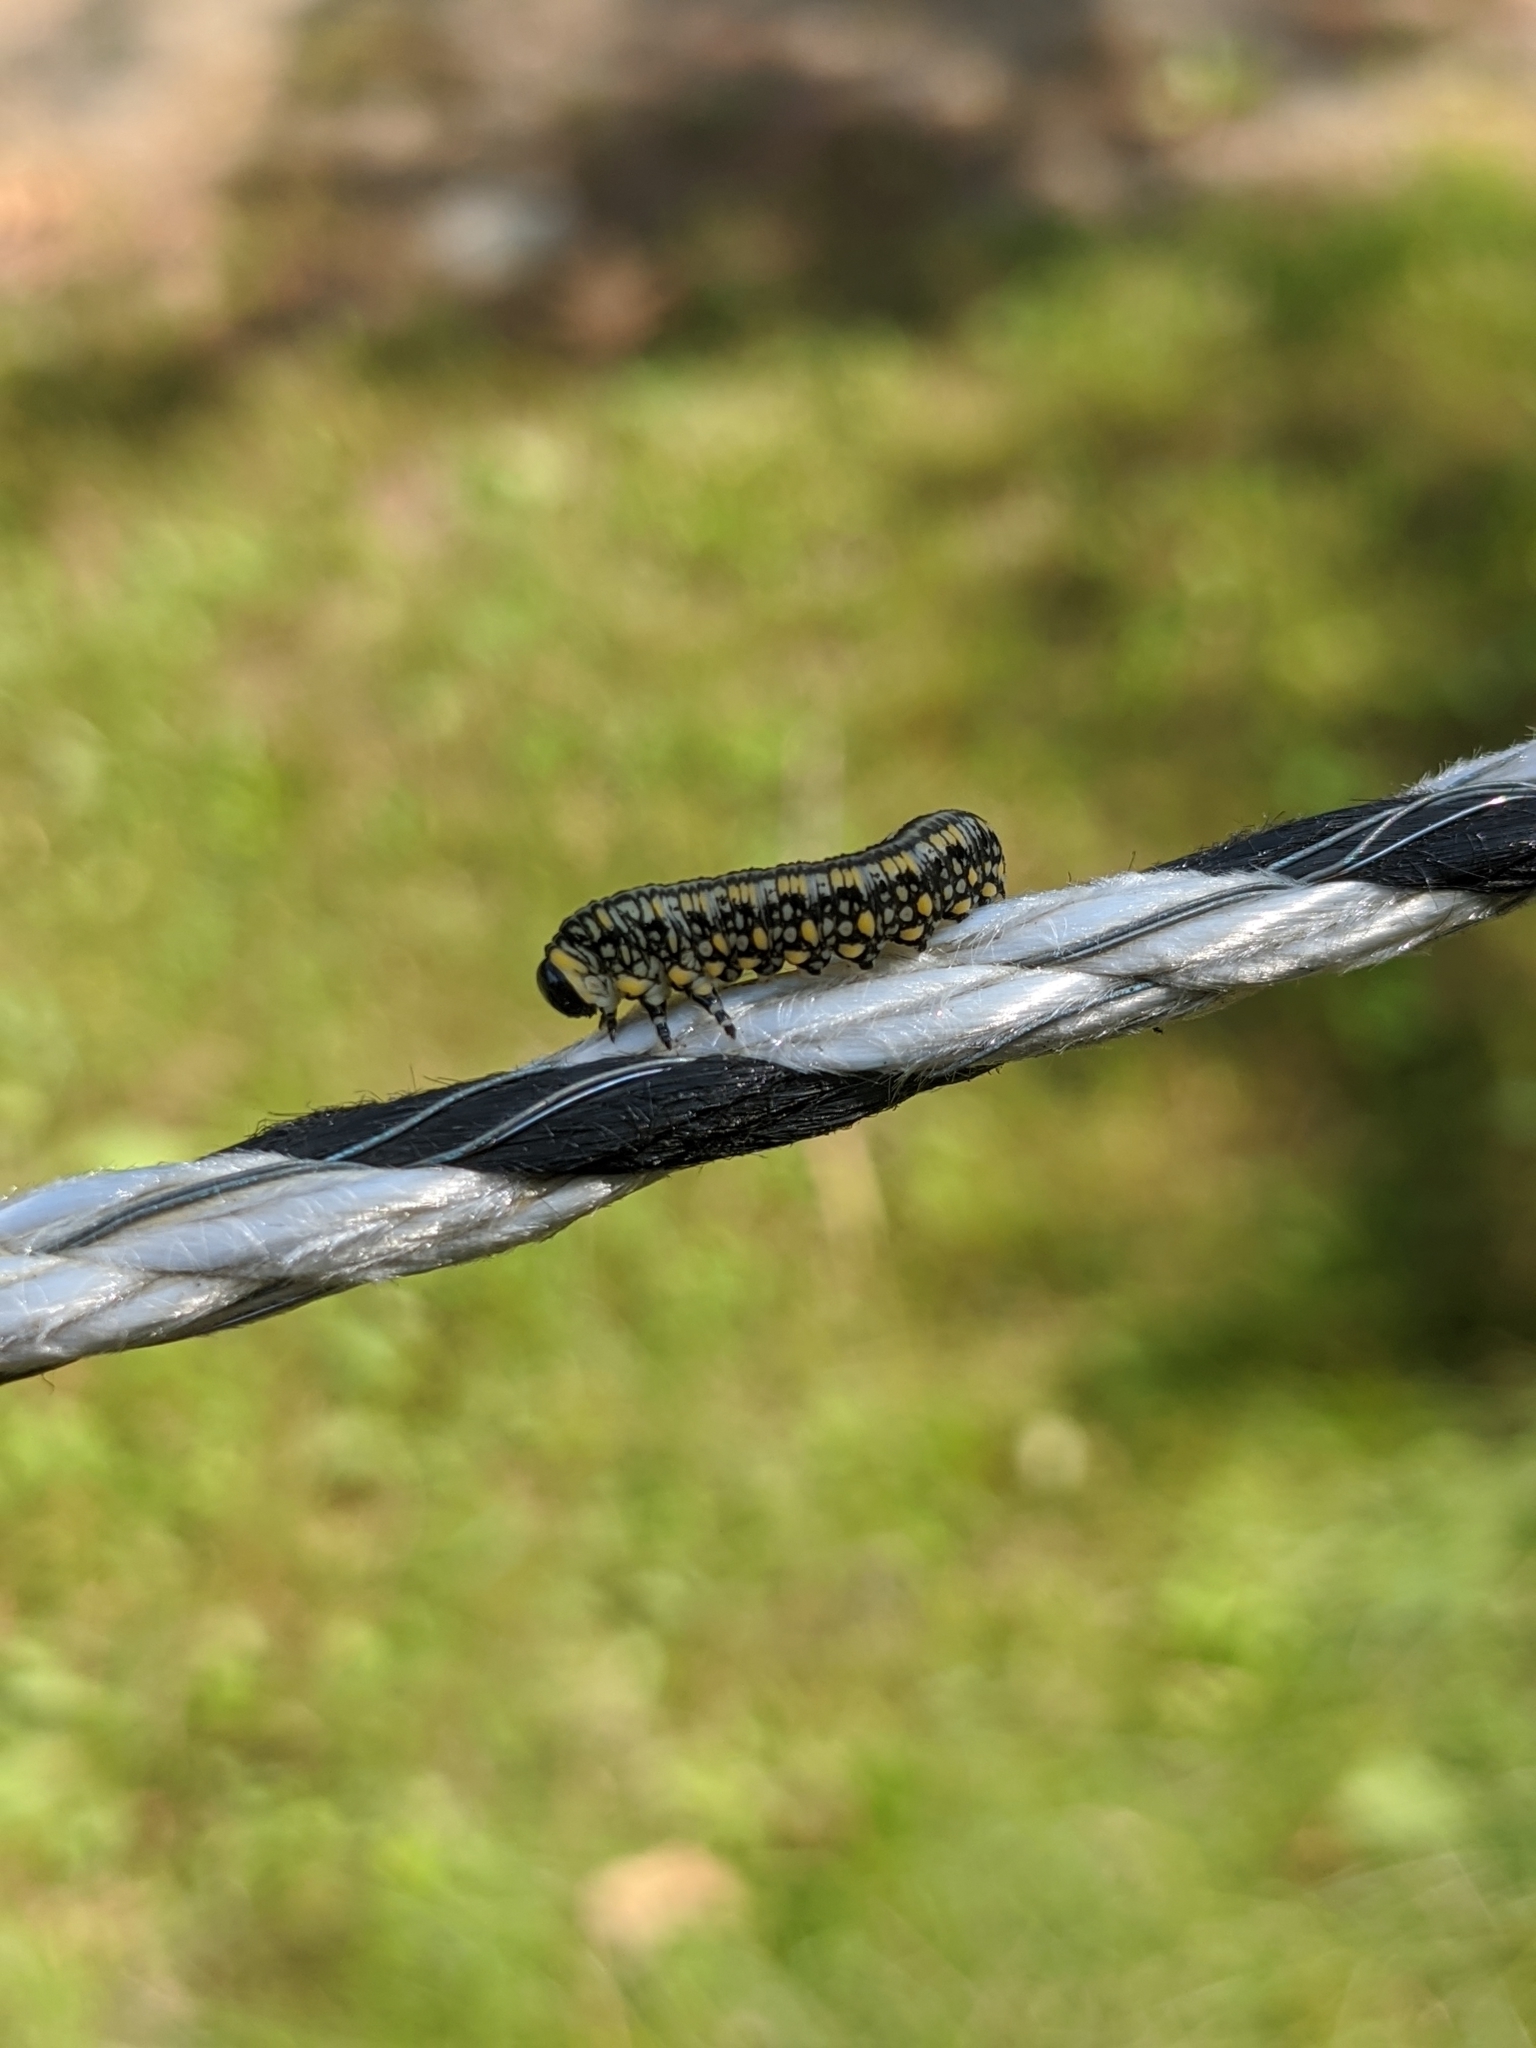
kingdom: Animalia
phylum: Arthropoda
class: Insecta
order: Hymenoptera
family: Diprionidae
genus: Diprion
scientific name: Diprion similis
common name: Pine sawfly
